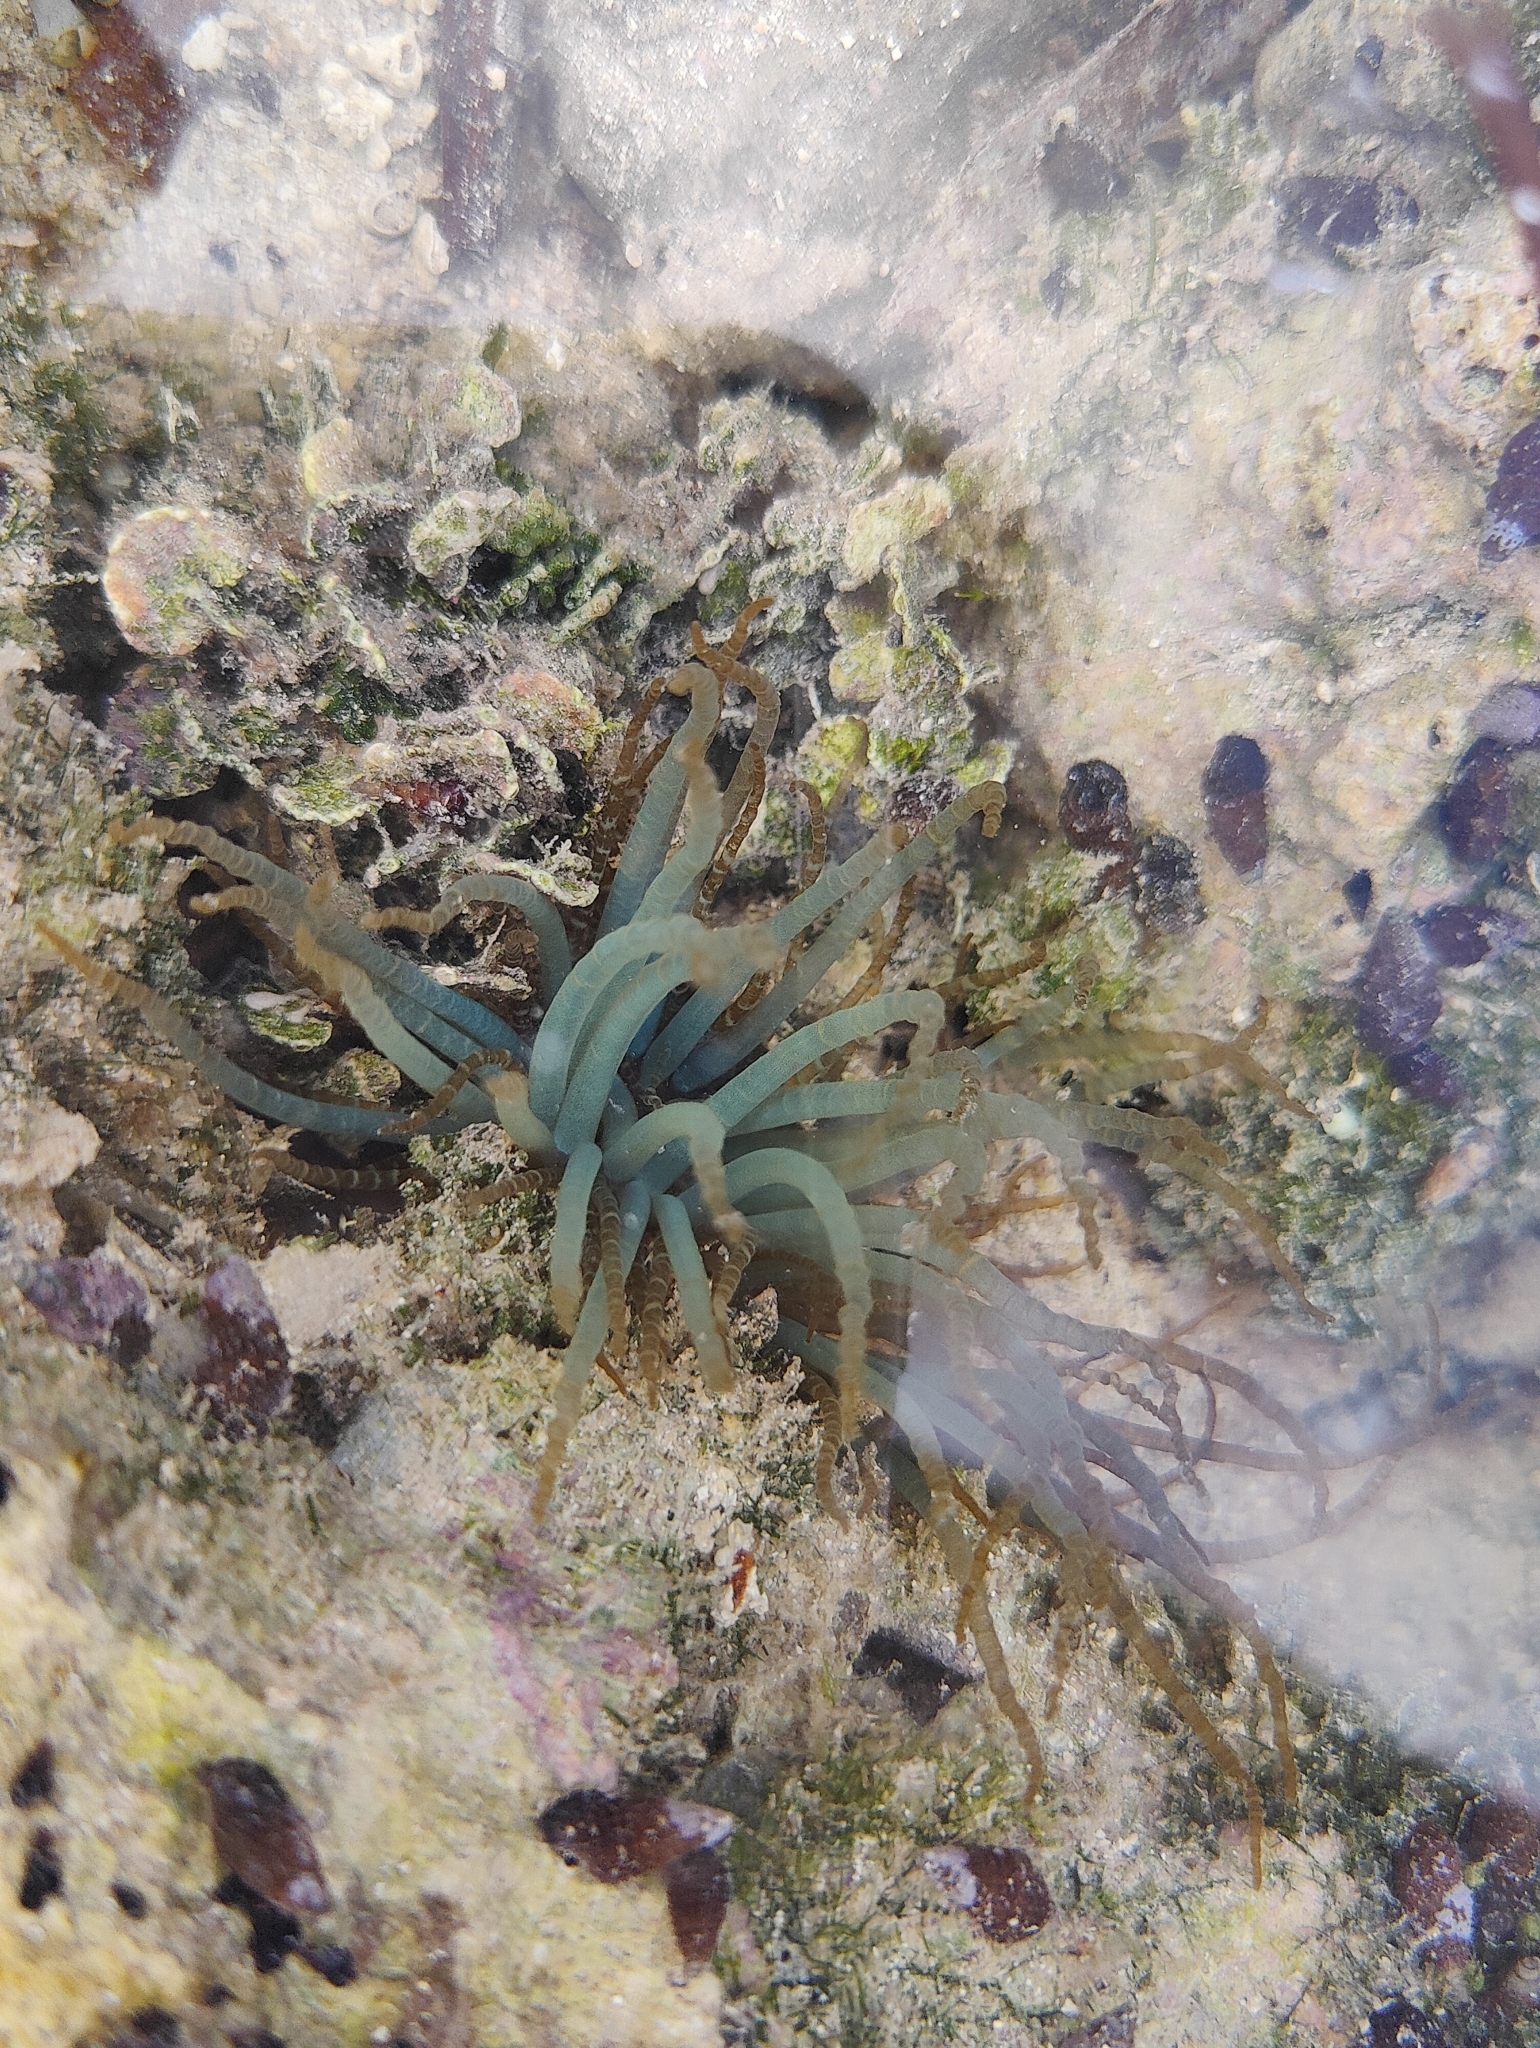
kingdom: Animalia
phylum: Cnidaria
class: Anthozoa
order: Actiniaria
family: Aiptasiidae
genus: Bartholomea
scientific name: Bartholomea annulata
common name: Corkscrew anemone
